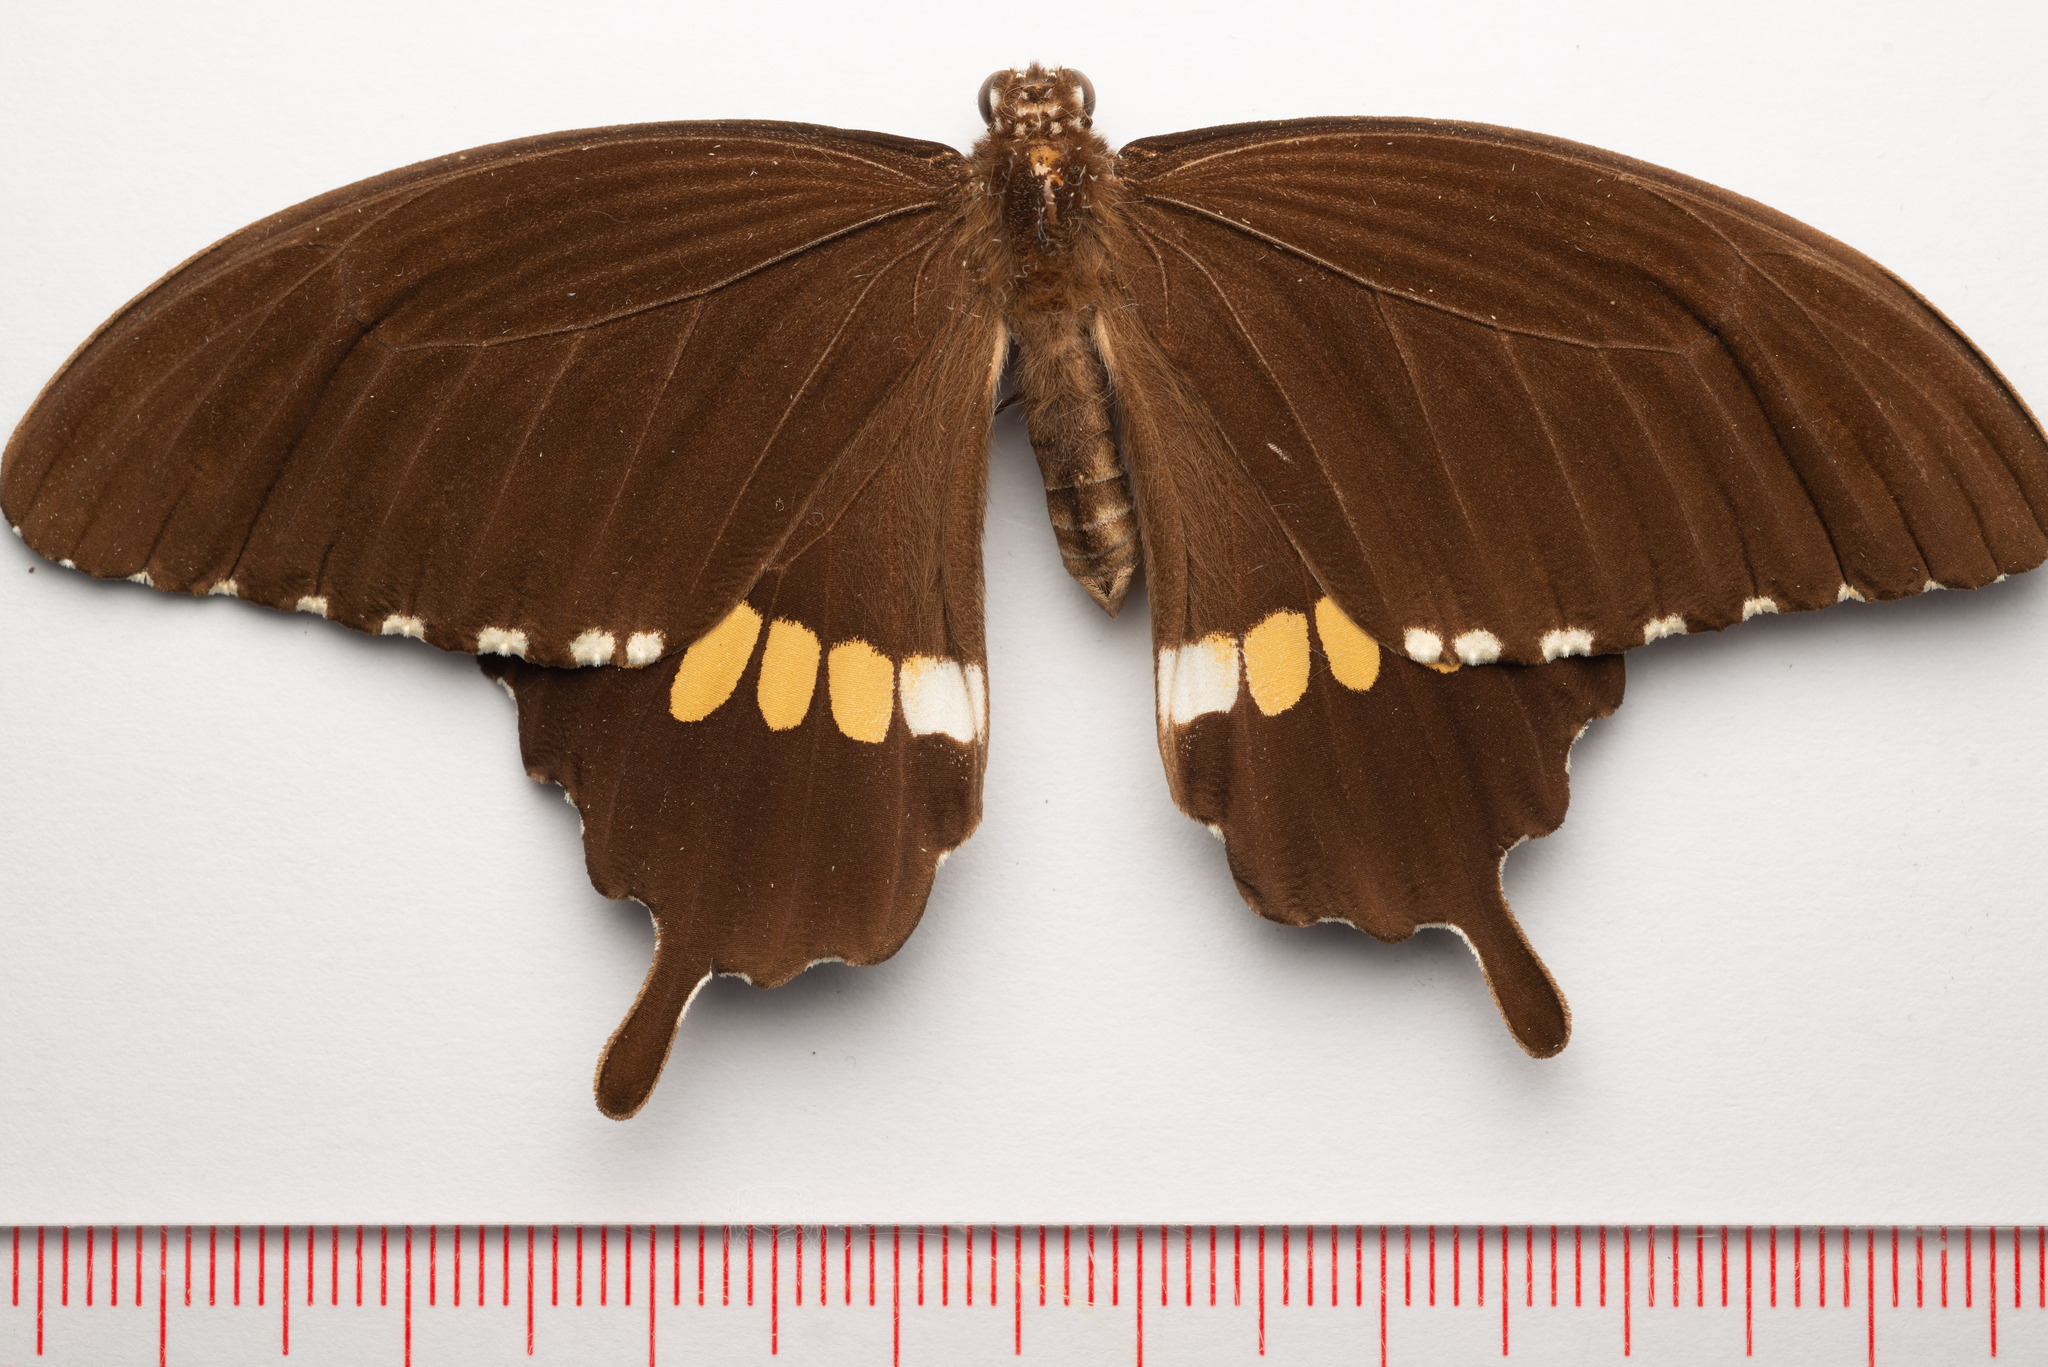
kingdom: Animalia
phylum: Arthropoda
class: Insecta
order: Lepidoptera
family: Papilionidae
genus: Papilio
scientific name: Papilio polytes
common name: Common mormon
